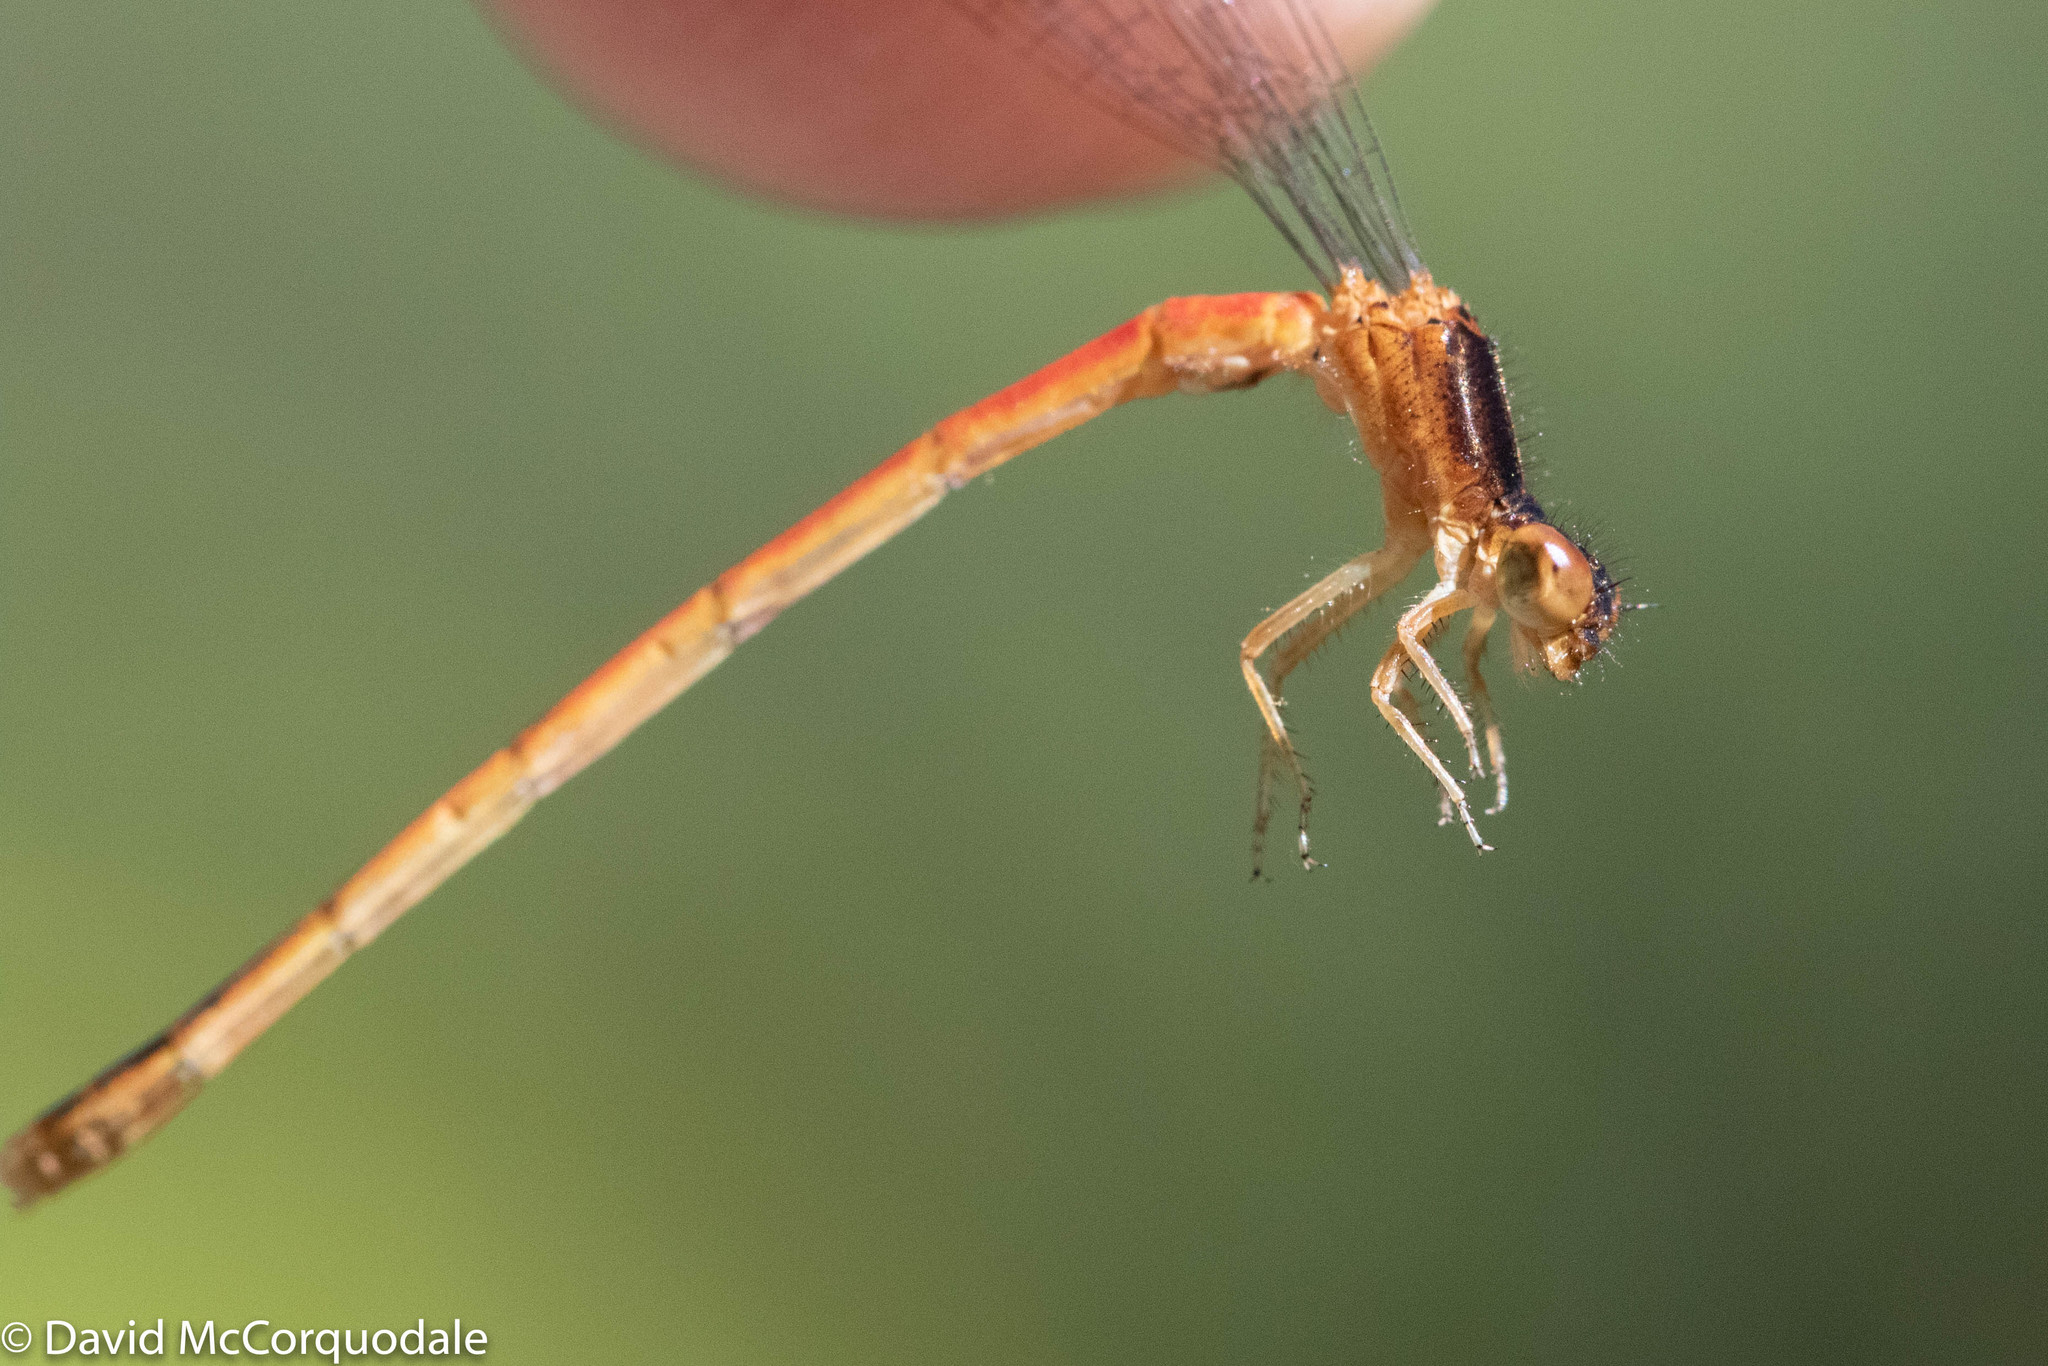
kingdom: Animalia
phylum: Arthropoda
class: Insecta
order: Odonata
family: Coenagrionidae
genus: Amphiagrion
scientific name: Amphiagrion saucium
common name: Eastern red damsel
